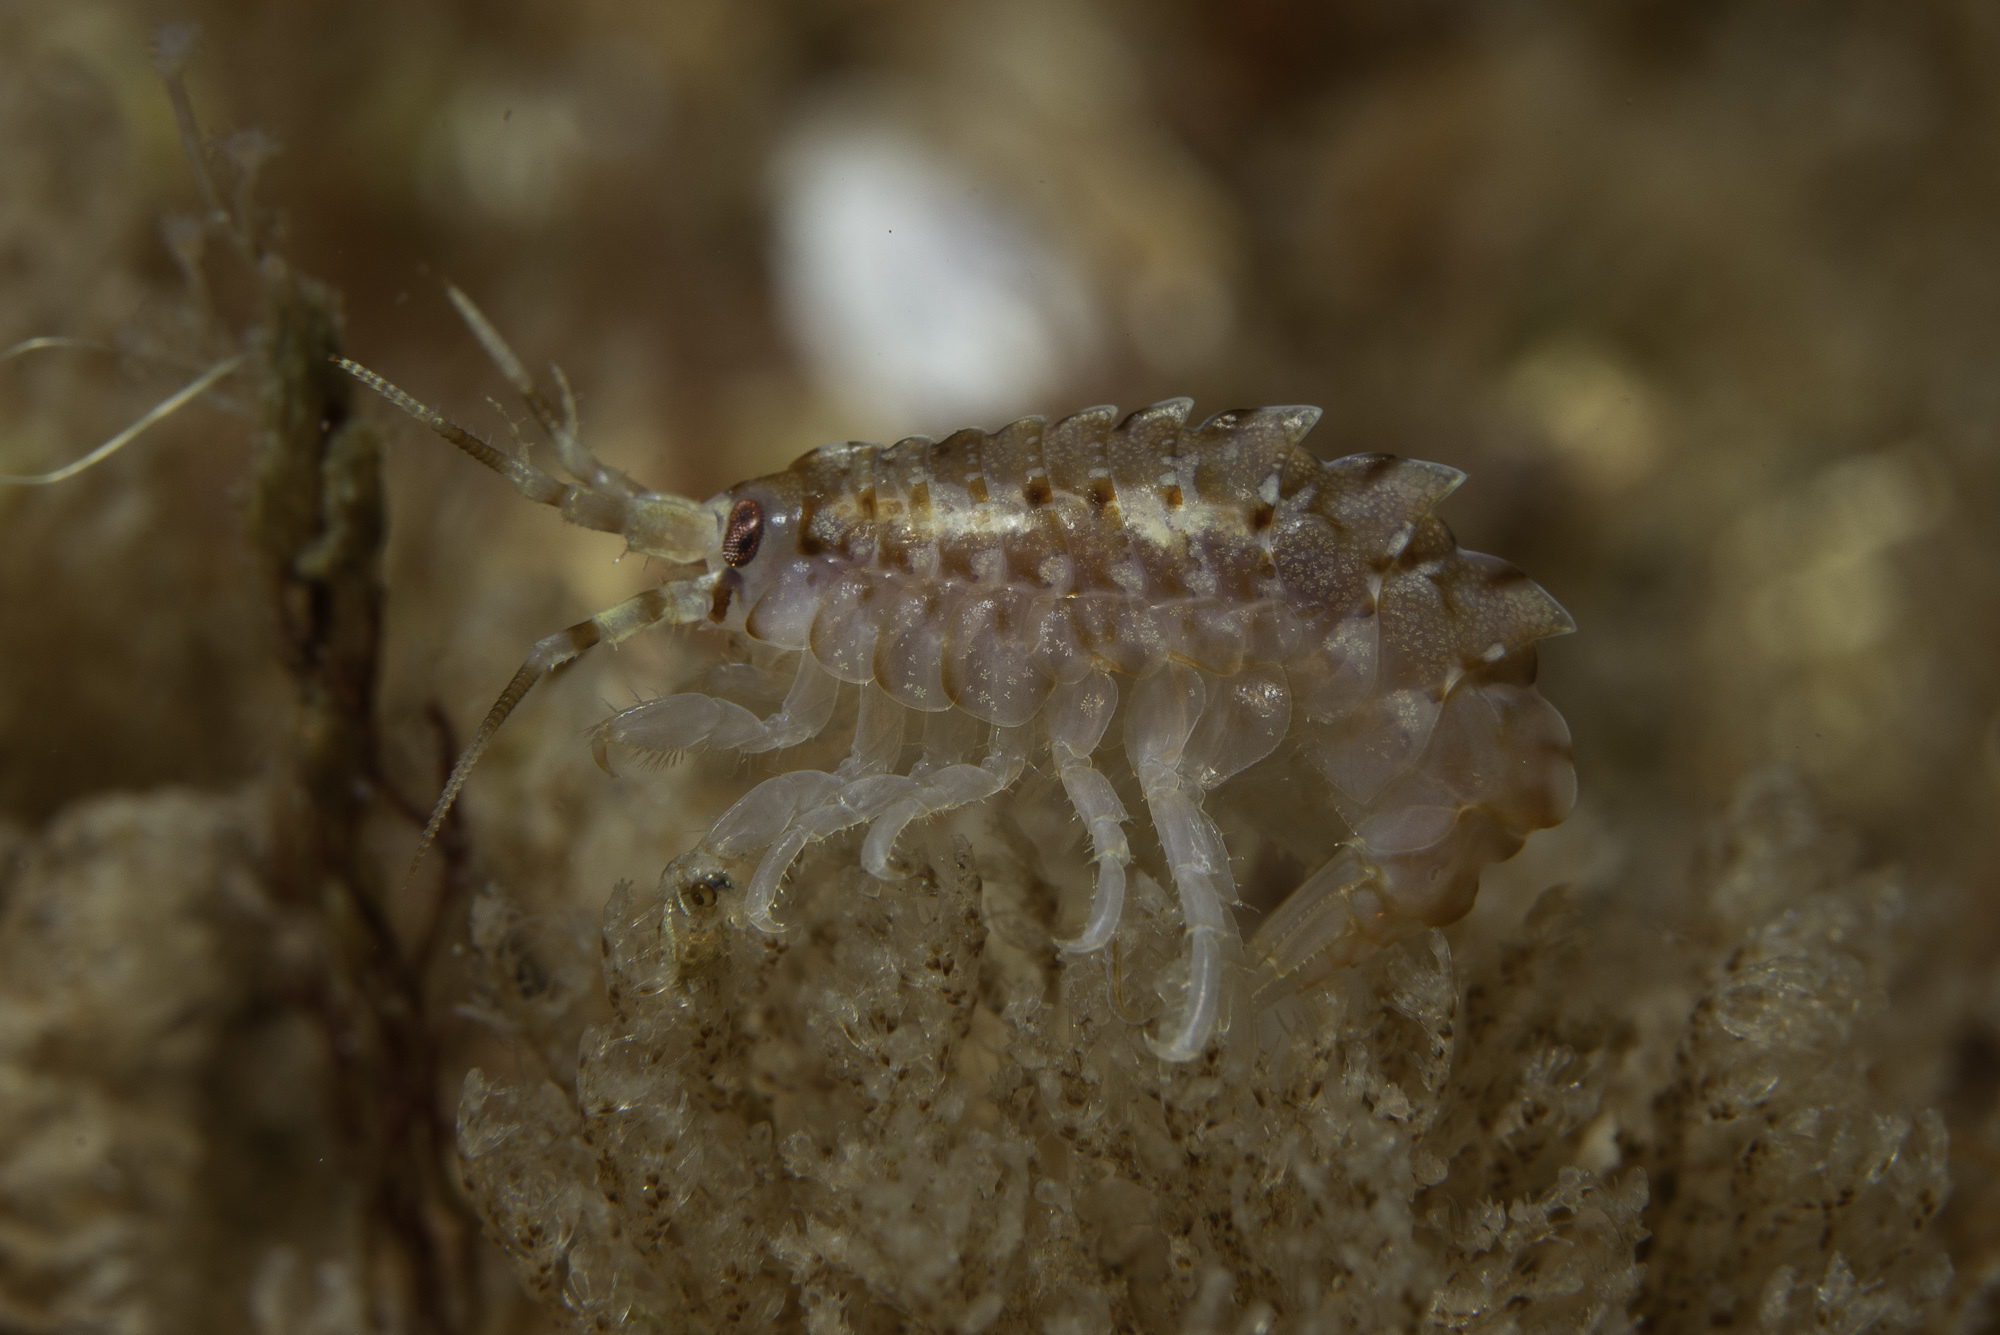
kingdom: Animalia
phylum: Arthropoda
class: Malacostraca
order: Amphipoda
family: Gammarellidae
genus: Gammarellus
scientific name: Gammarellus homari
